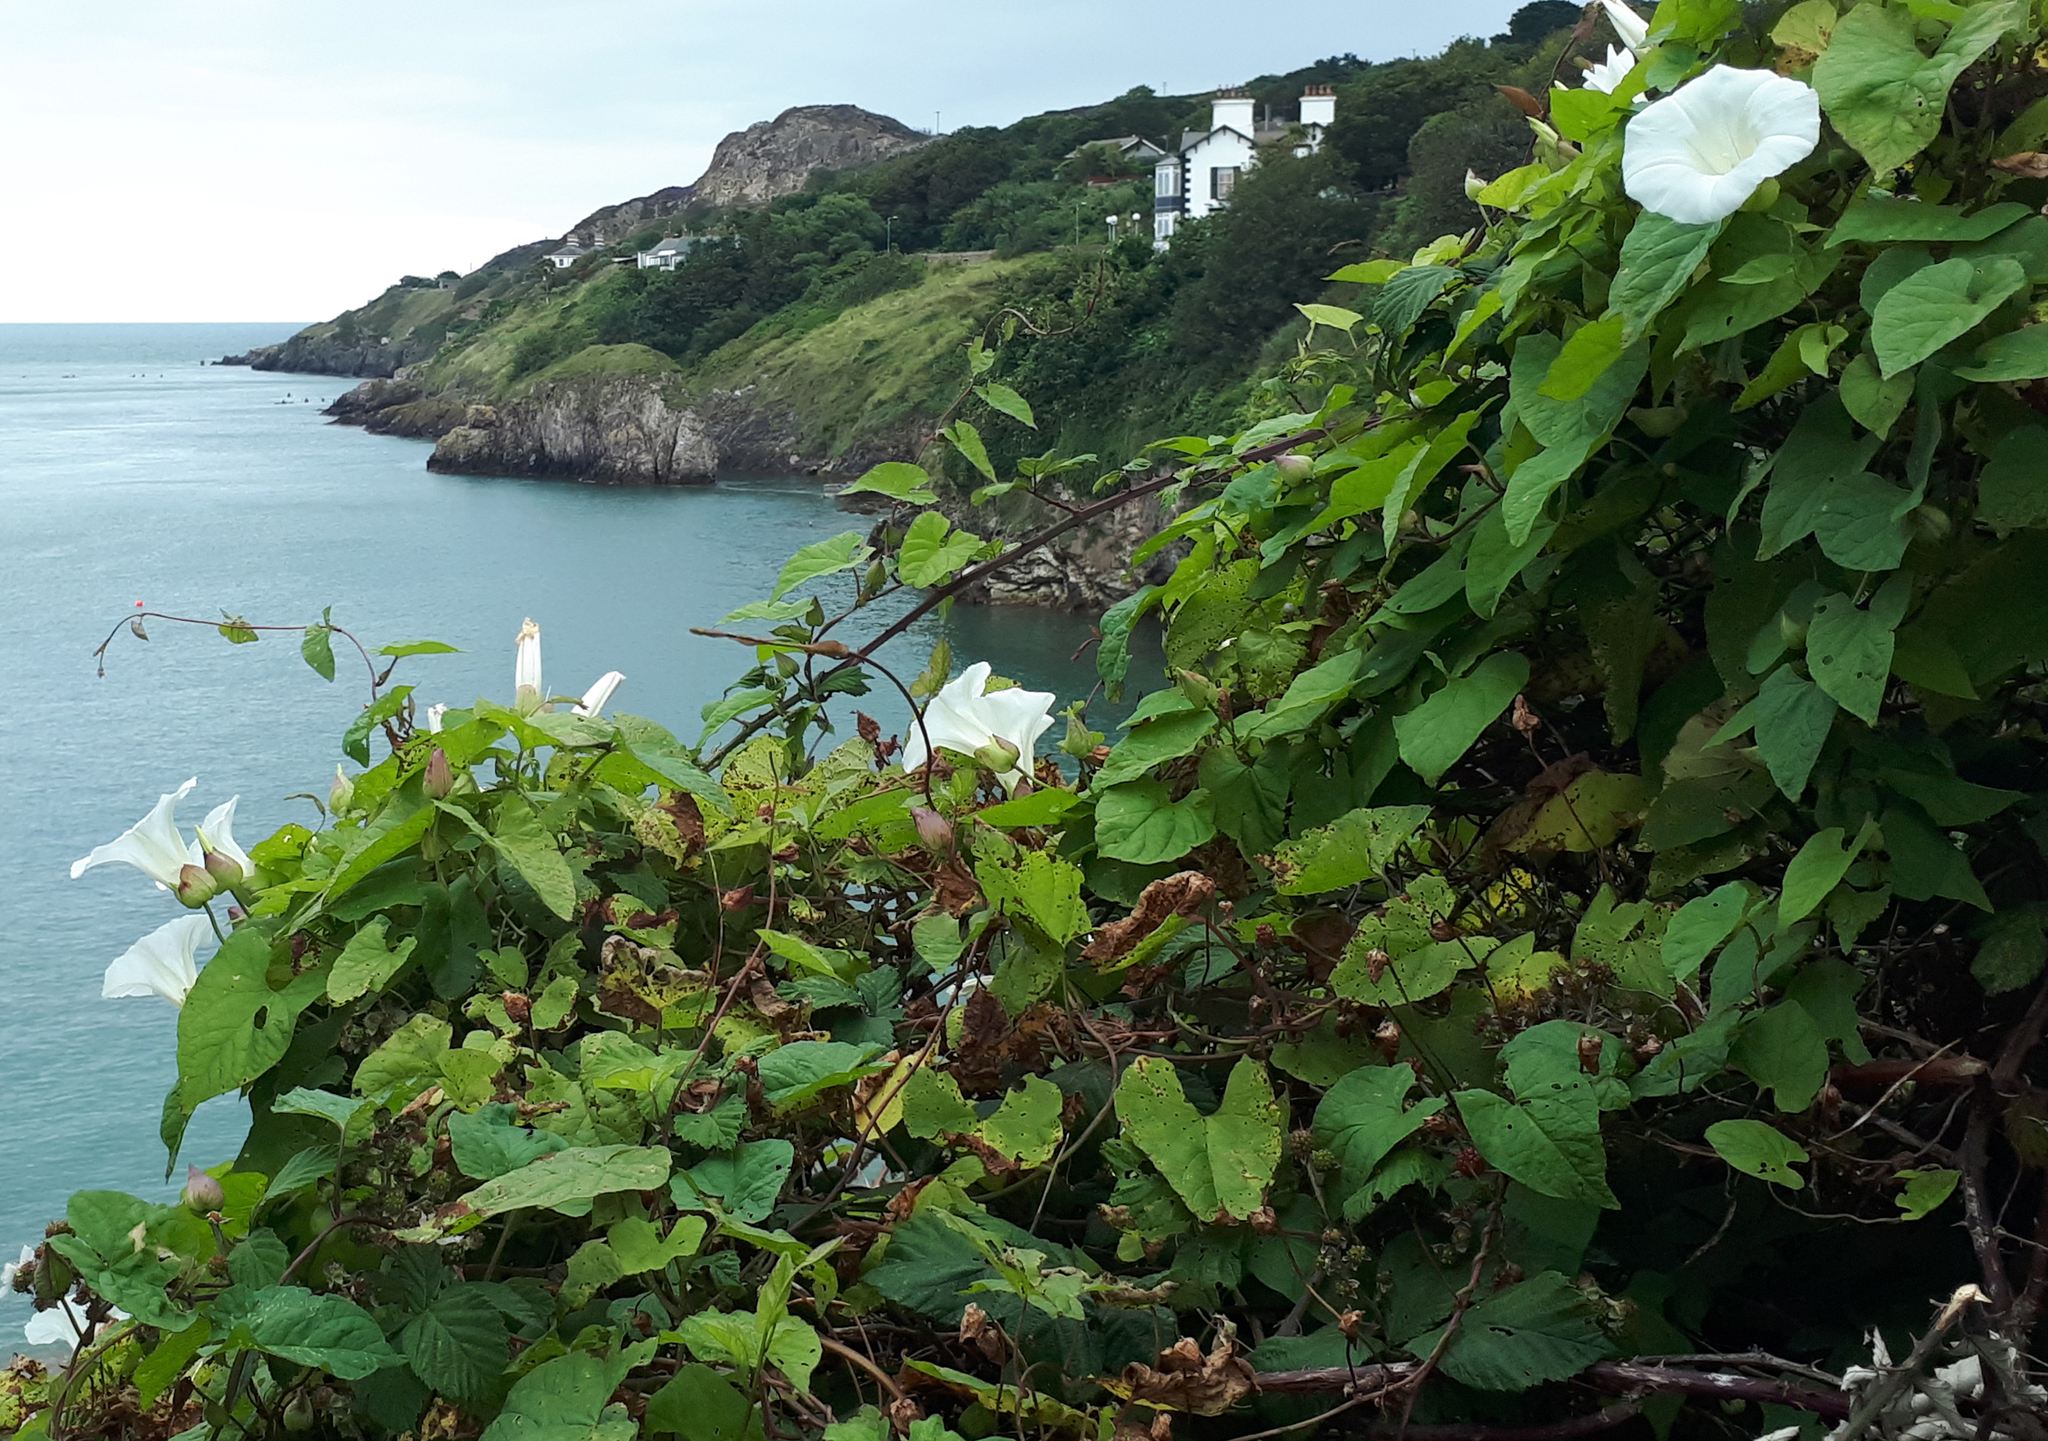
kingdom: Plantae
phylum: Tracheophyta
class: Magnoliopsida
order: Solanales
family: Convolvulaceae
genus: Calystegia
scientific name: Calystegia silvatica
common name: Large bindweed
